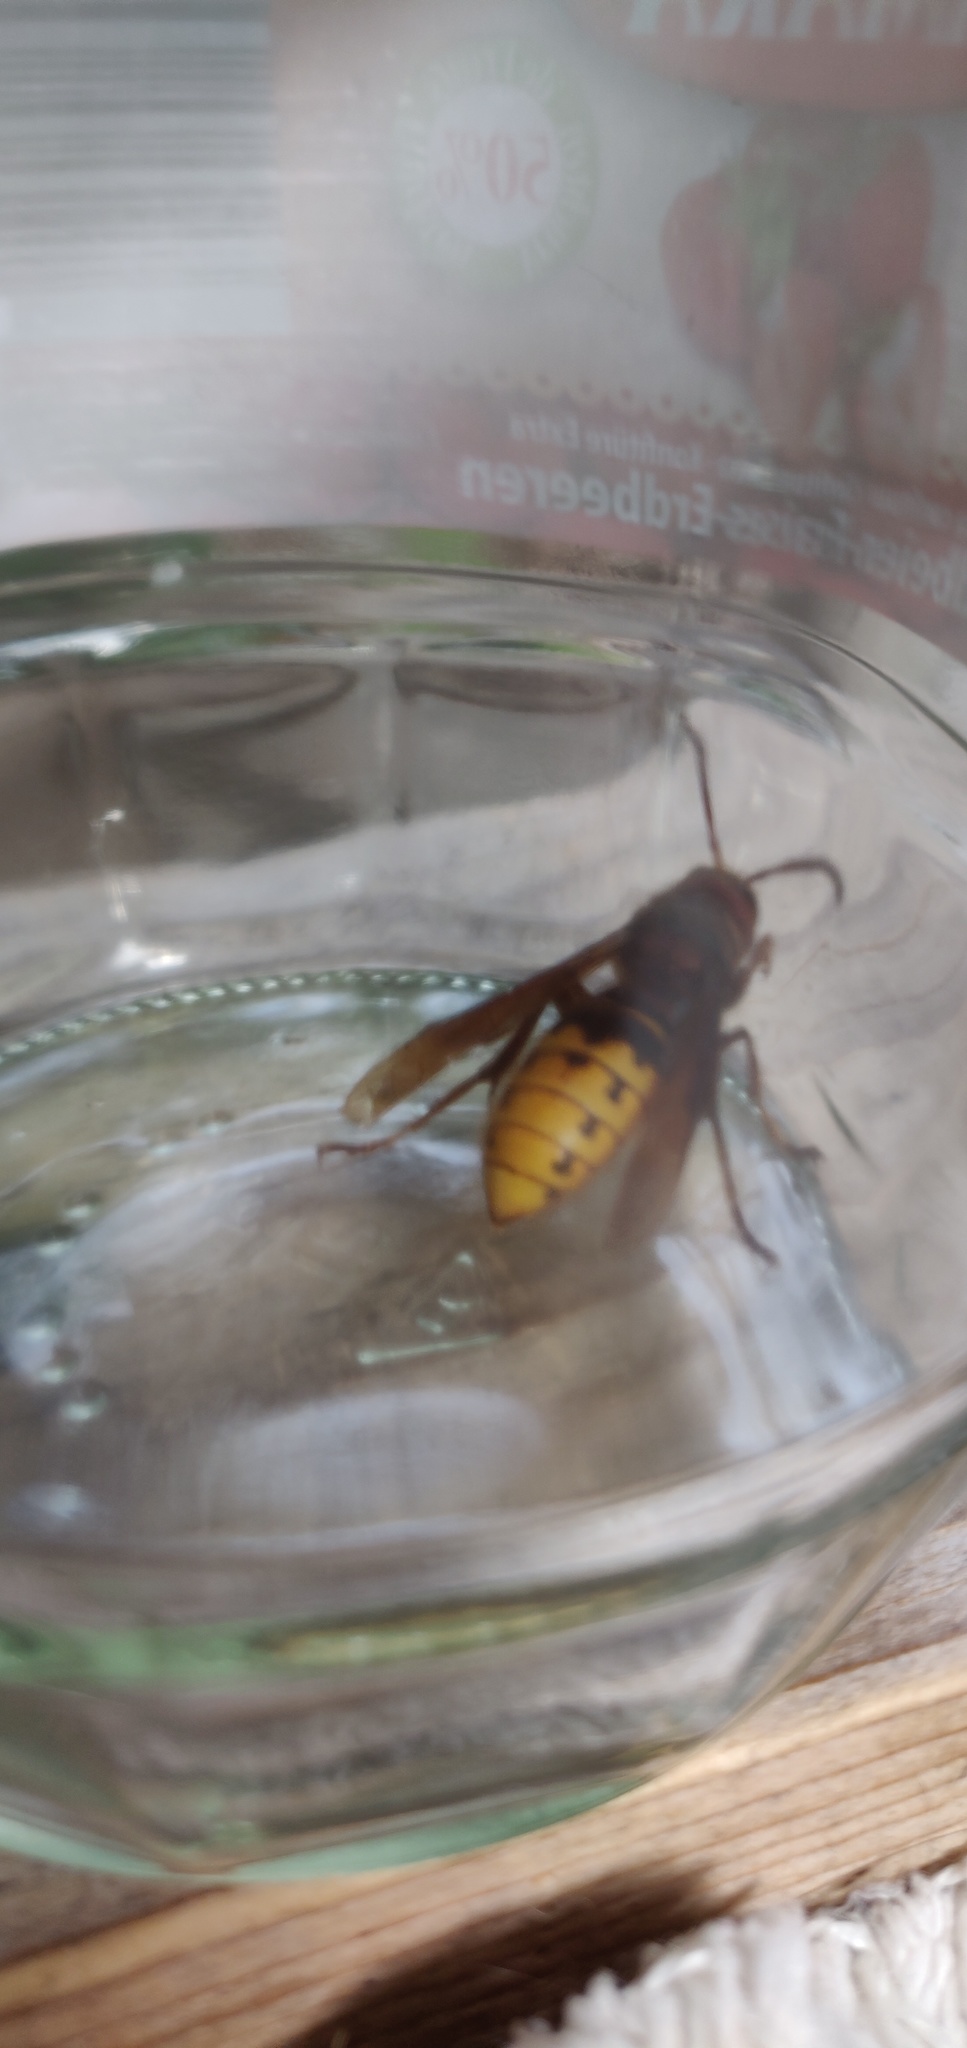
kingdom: Animalia
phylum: Arthropoda
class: Insecta
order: Hymenoptera
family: Vespidae
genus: Vespa
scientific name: Vespa crabro
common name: Hornet
